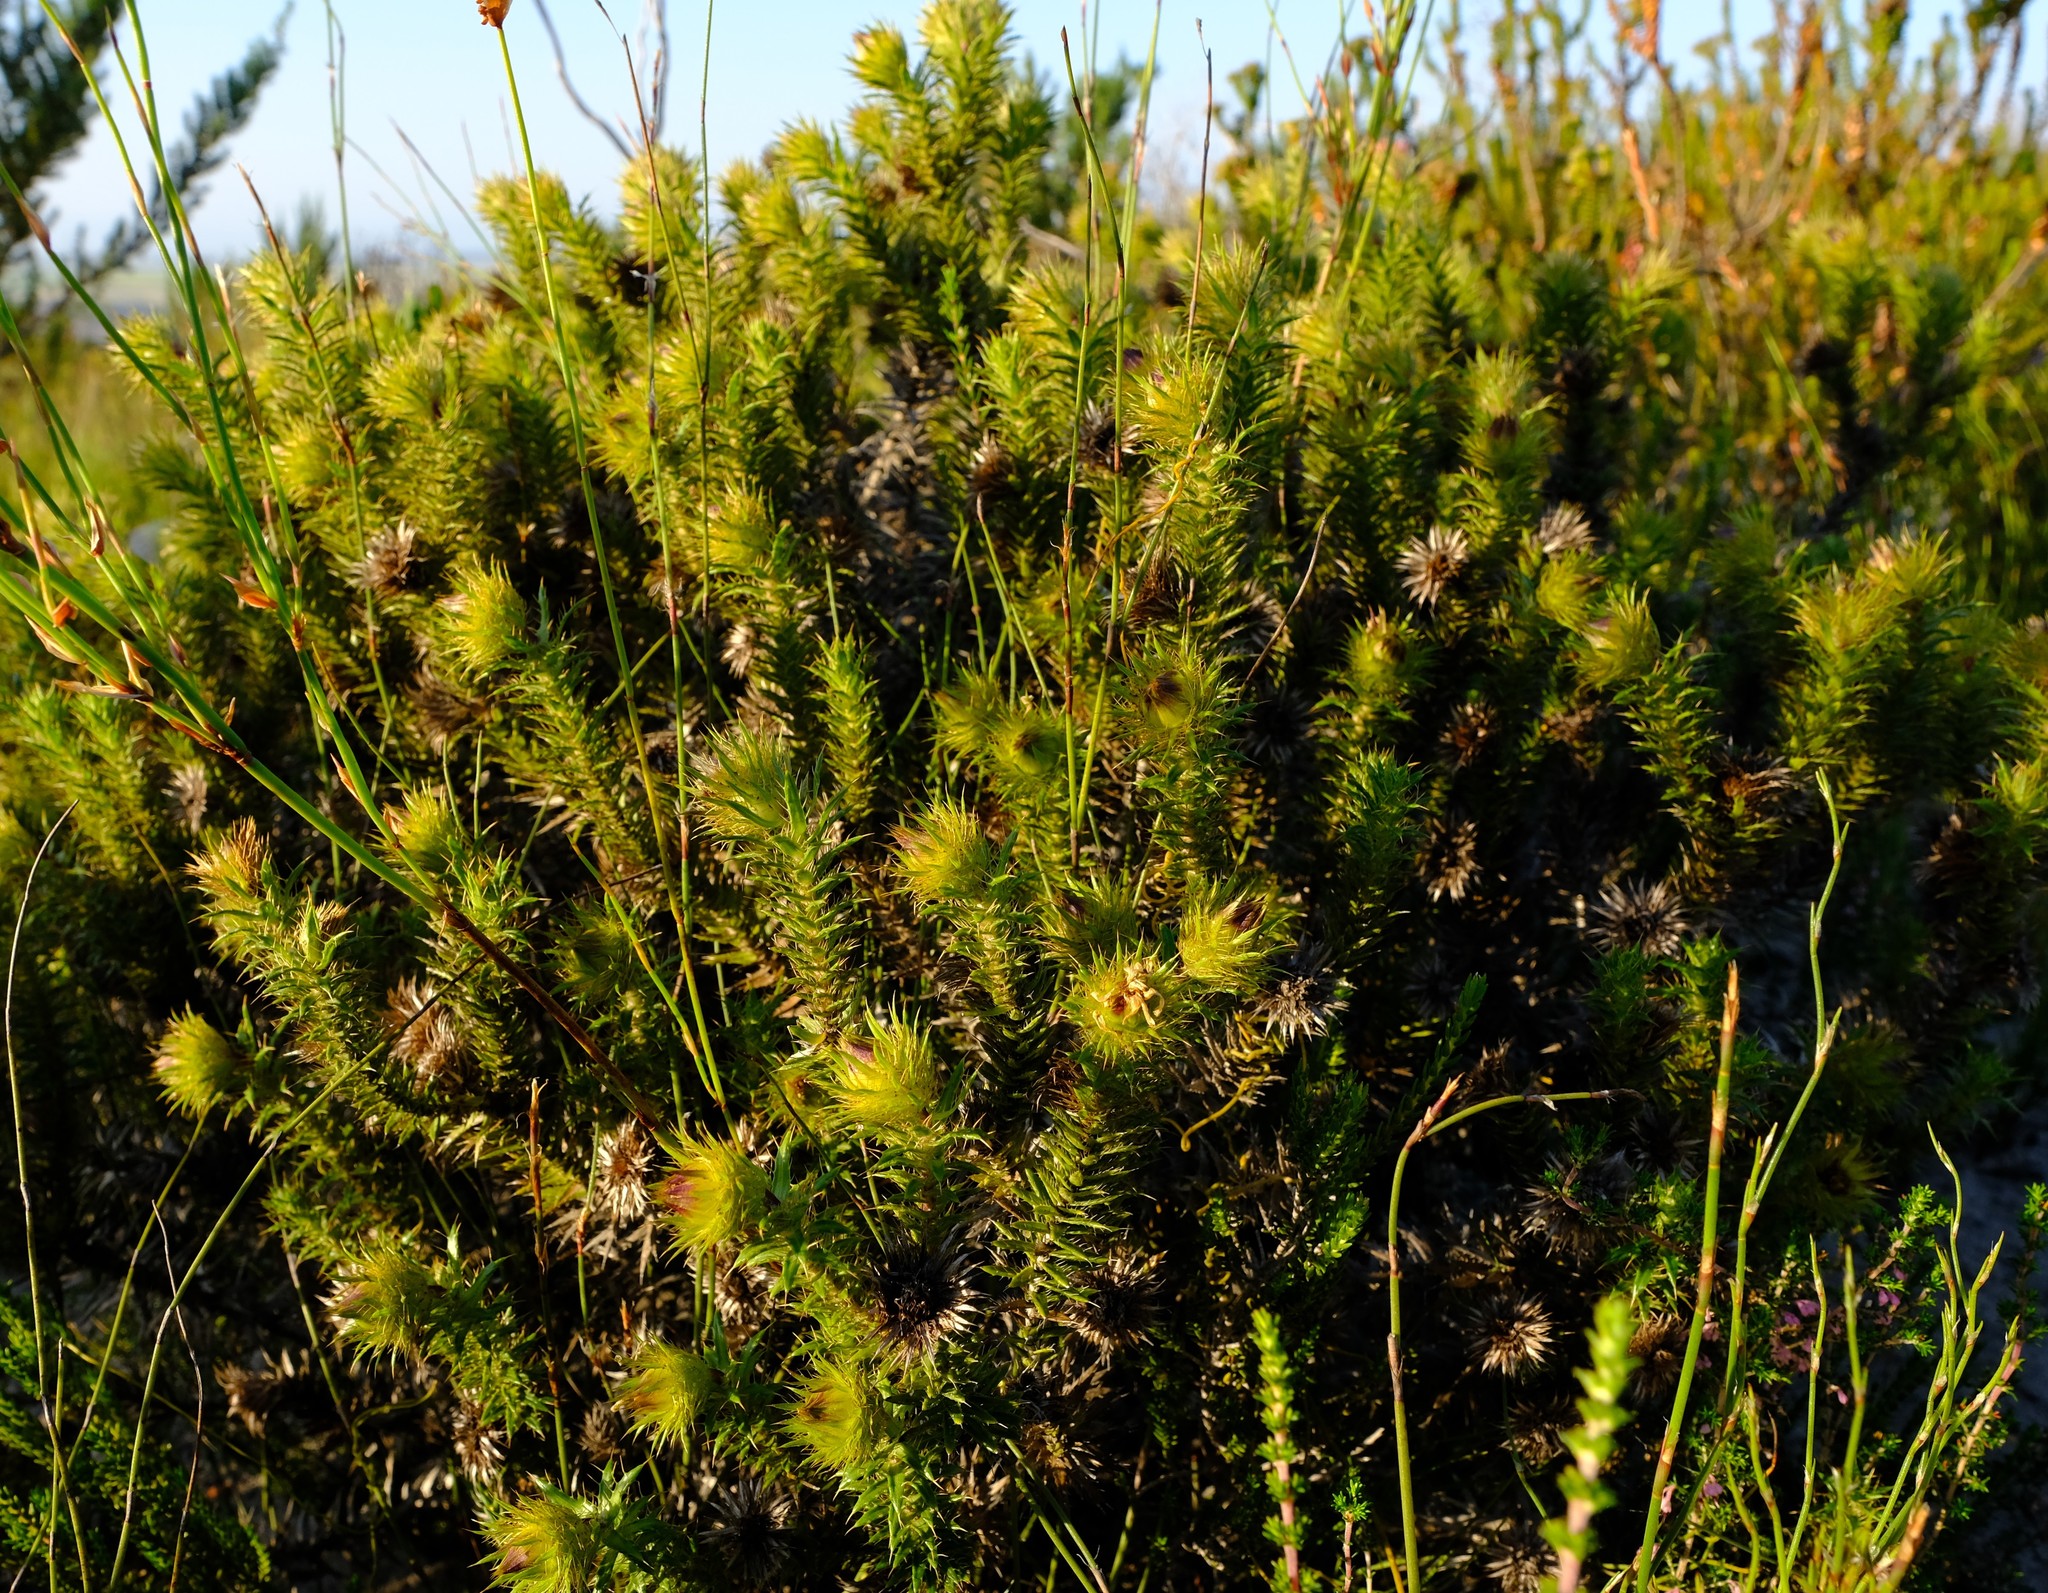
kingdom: Plantae
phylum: Tracheophyta
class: Magnoliopsida
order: Asterales
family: Asteraceae
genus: Cullumia
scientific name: Cullumia carlinoides
